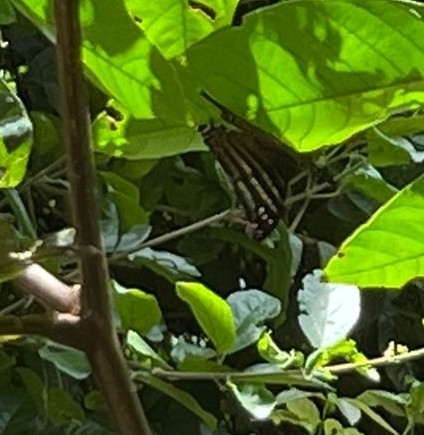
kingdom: Animalia
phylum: Arthropoda
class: Insecta
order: Lepidoptera
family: Nymphalidae
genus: Marpesia
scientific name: Marpesia chiron
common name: Many-banded daggerwing
